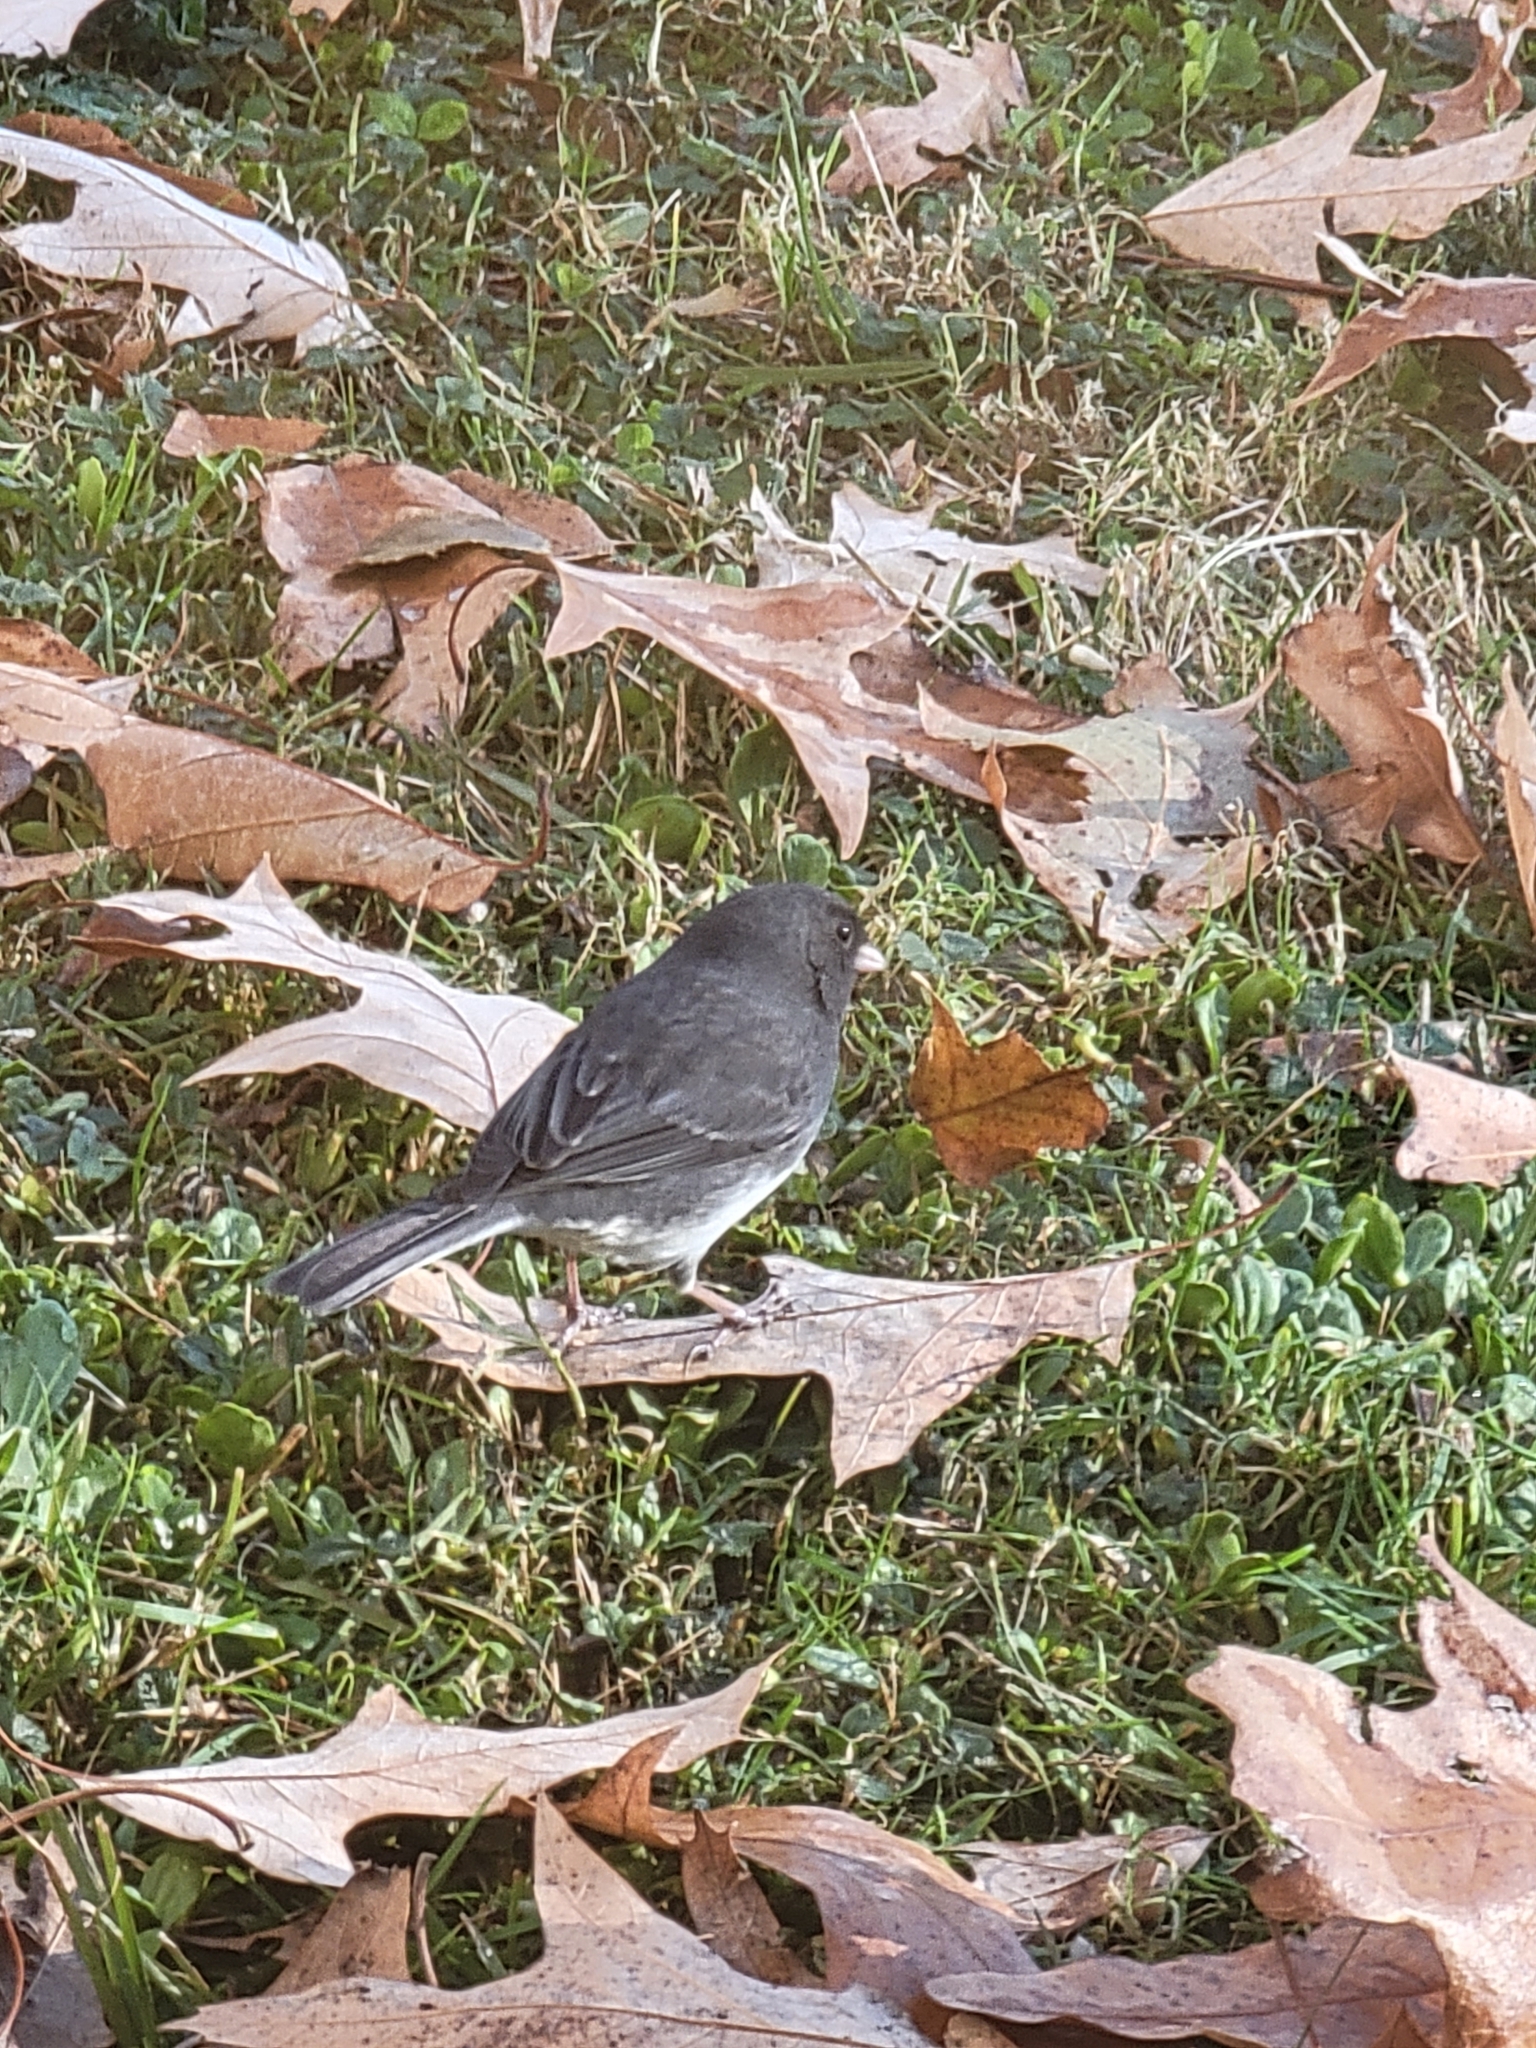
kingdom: Animalia
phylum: Chordata
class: Aves
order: Passeriformes
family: Passerellidae
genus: Junco
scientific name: Junco hyemalis
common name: Dark-eyed junco
